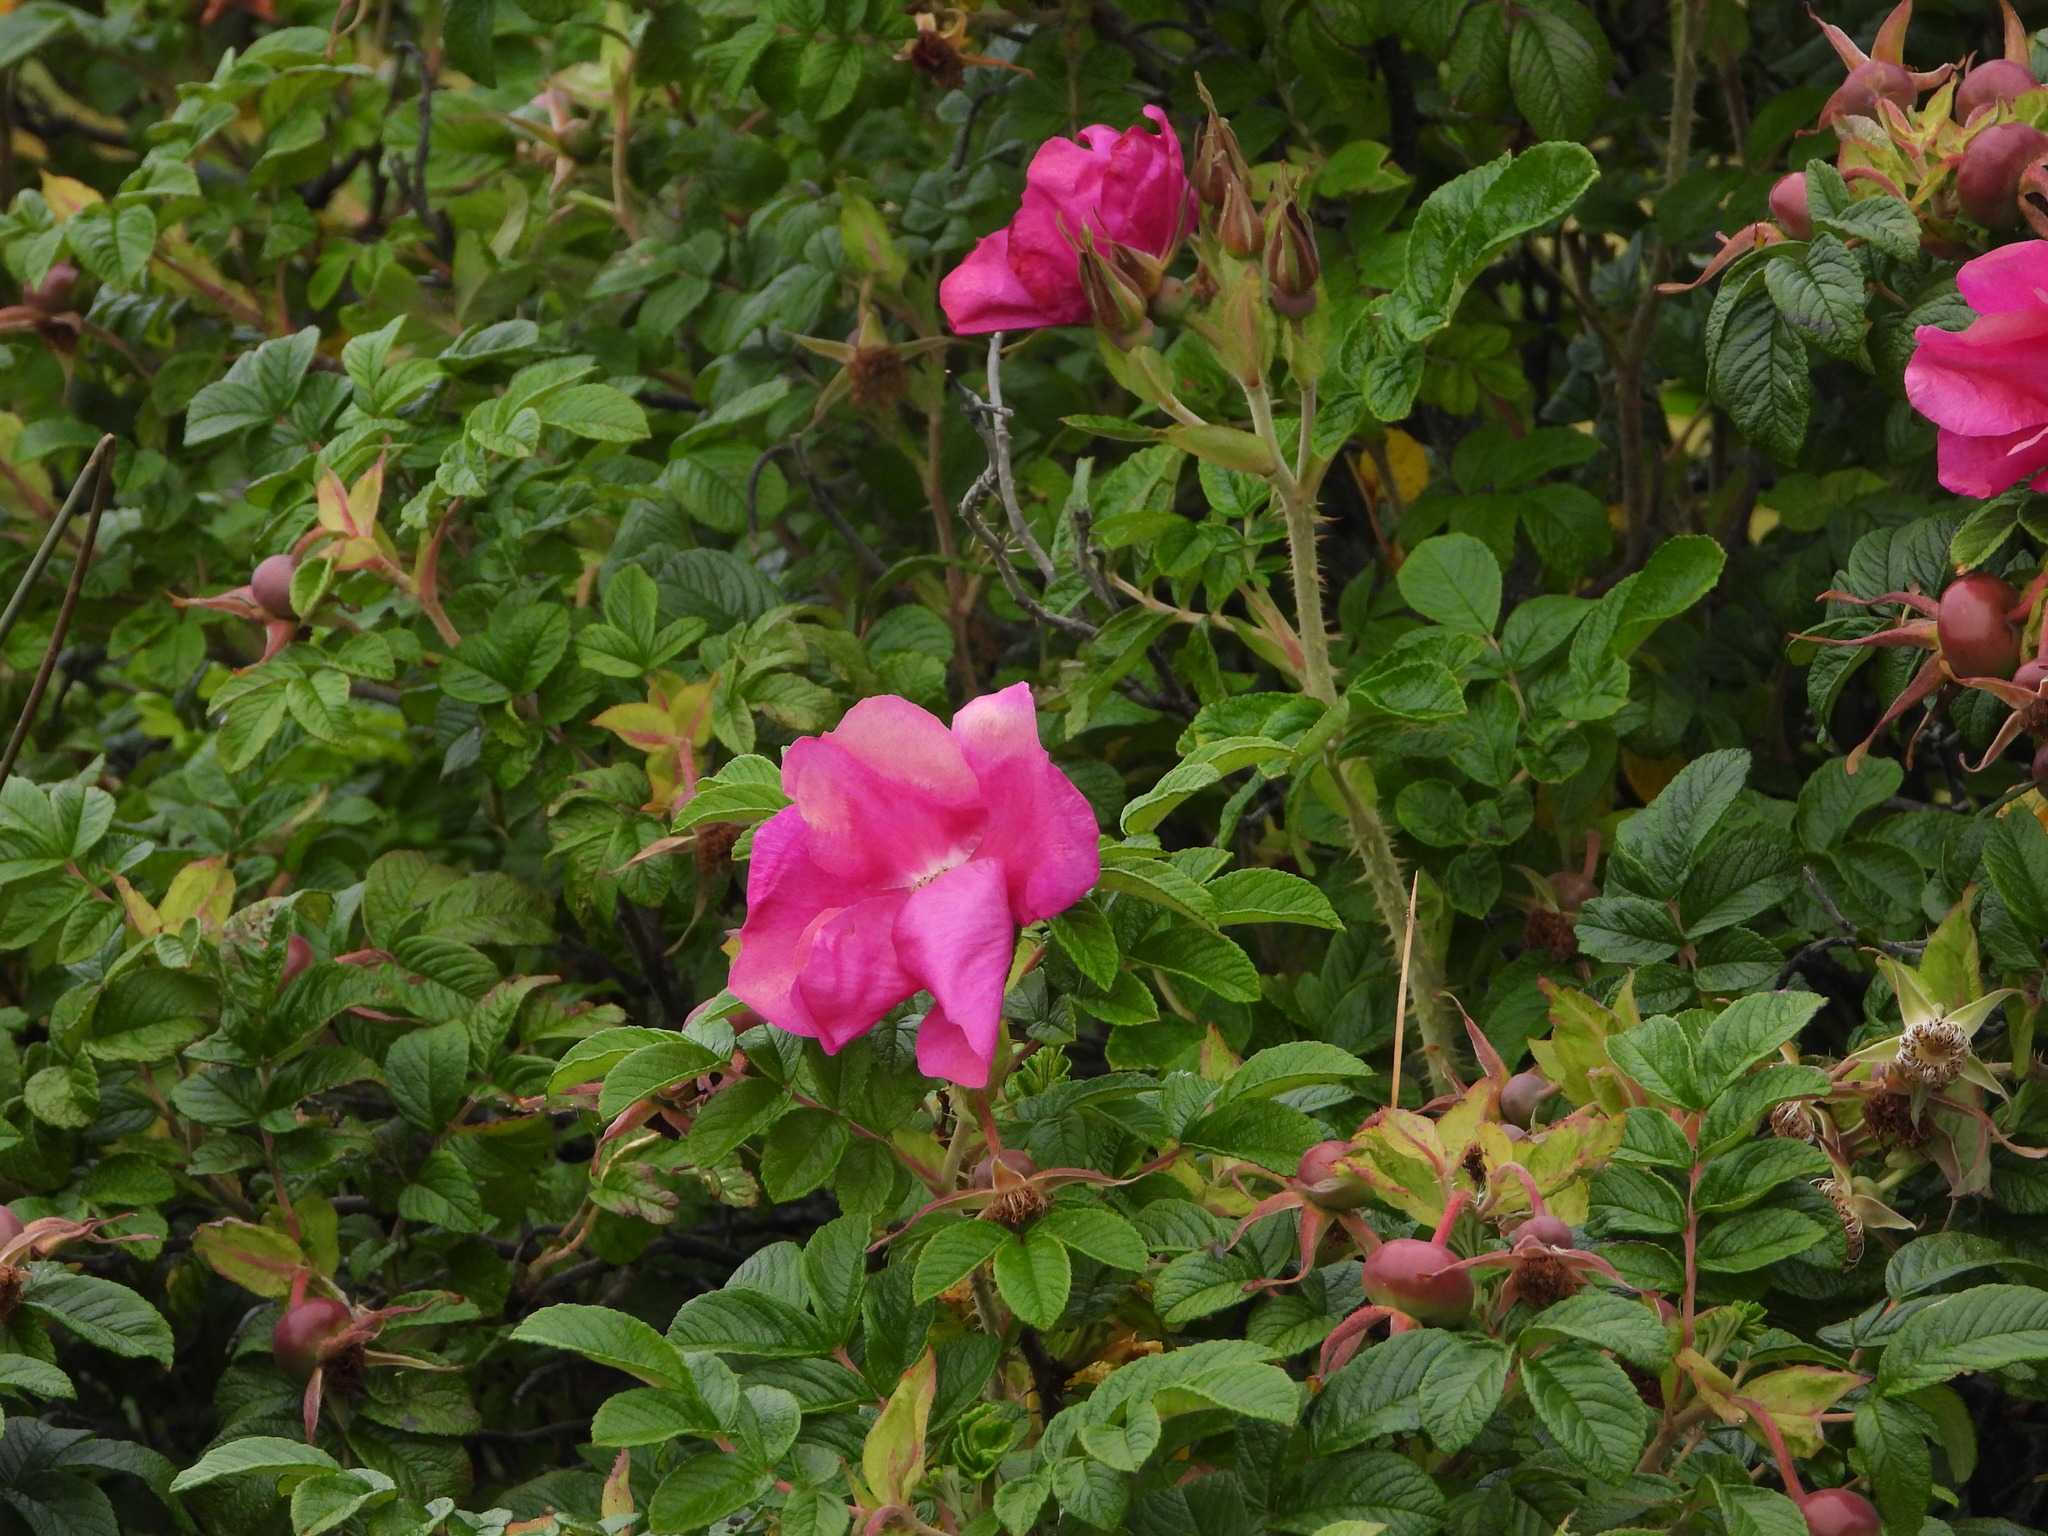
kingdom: Plantae
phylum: Tracheophyta
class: Magnoliopsida
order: Rosales
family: Rosaceae
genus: Rosa
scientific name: Rosa rugosa
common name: Japanese rose
